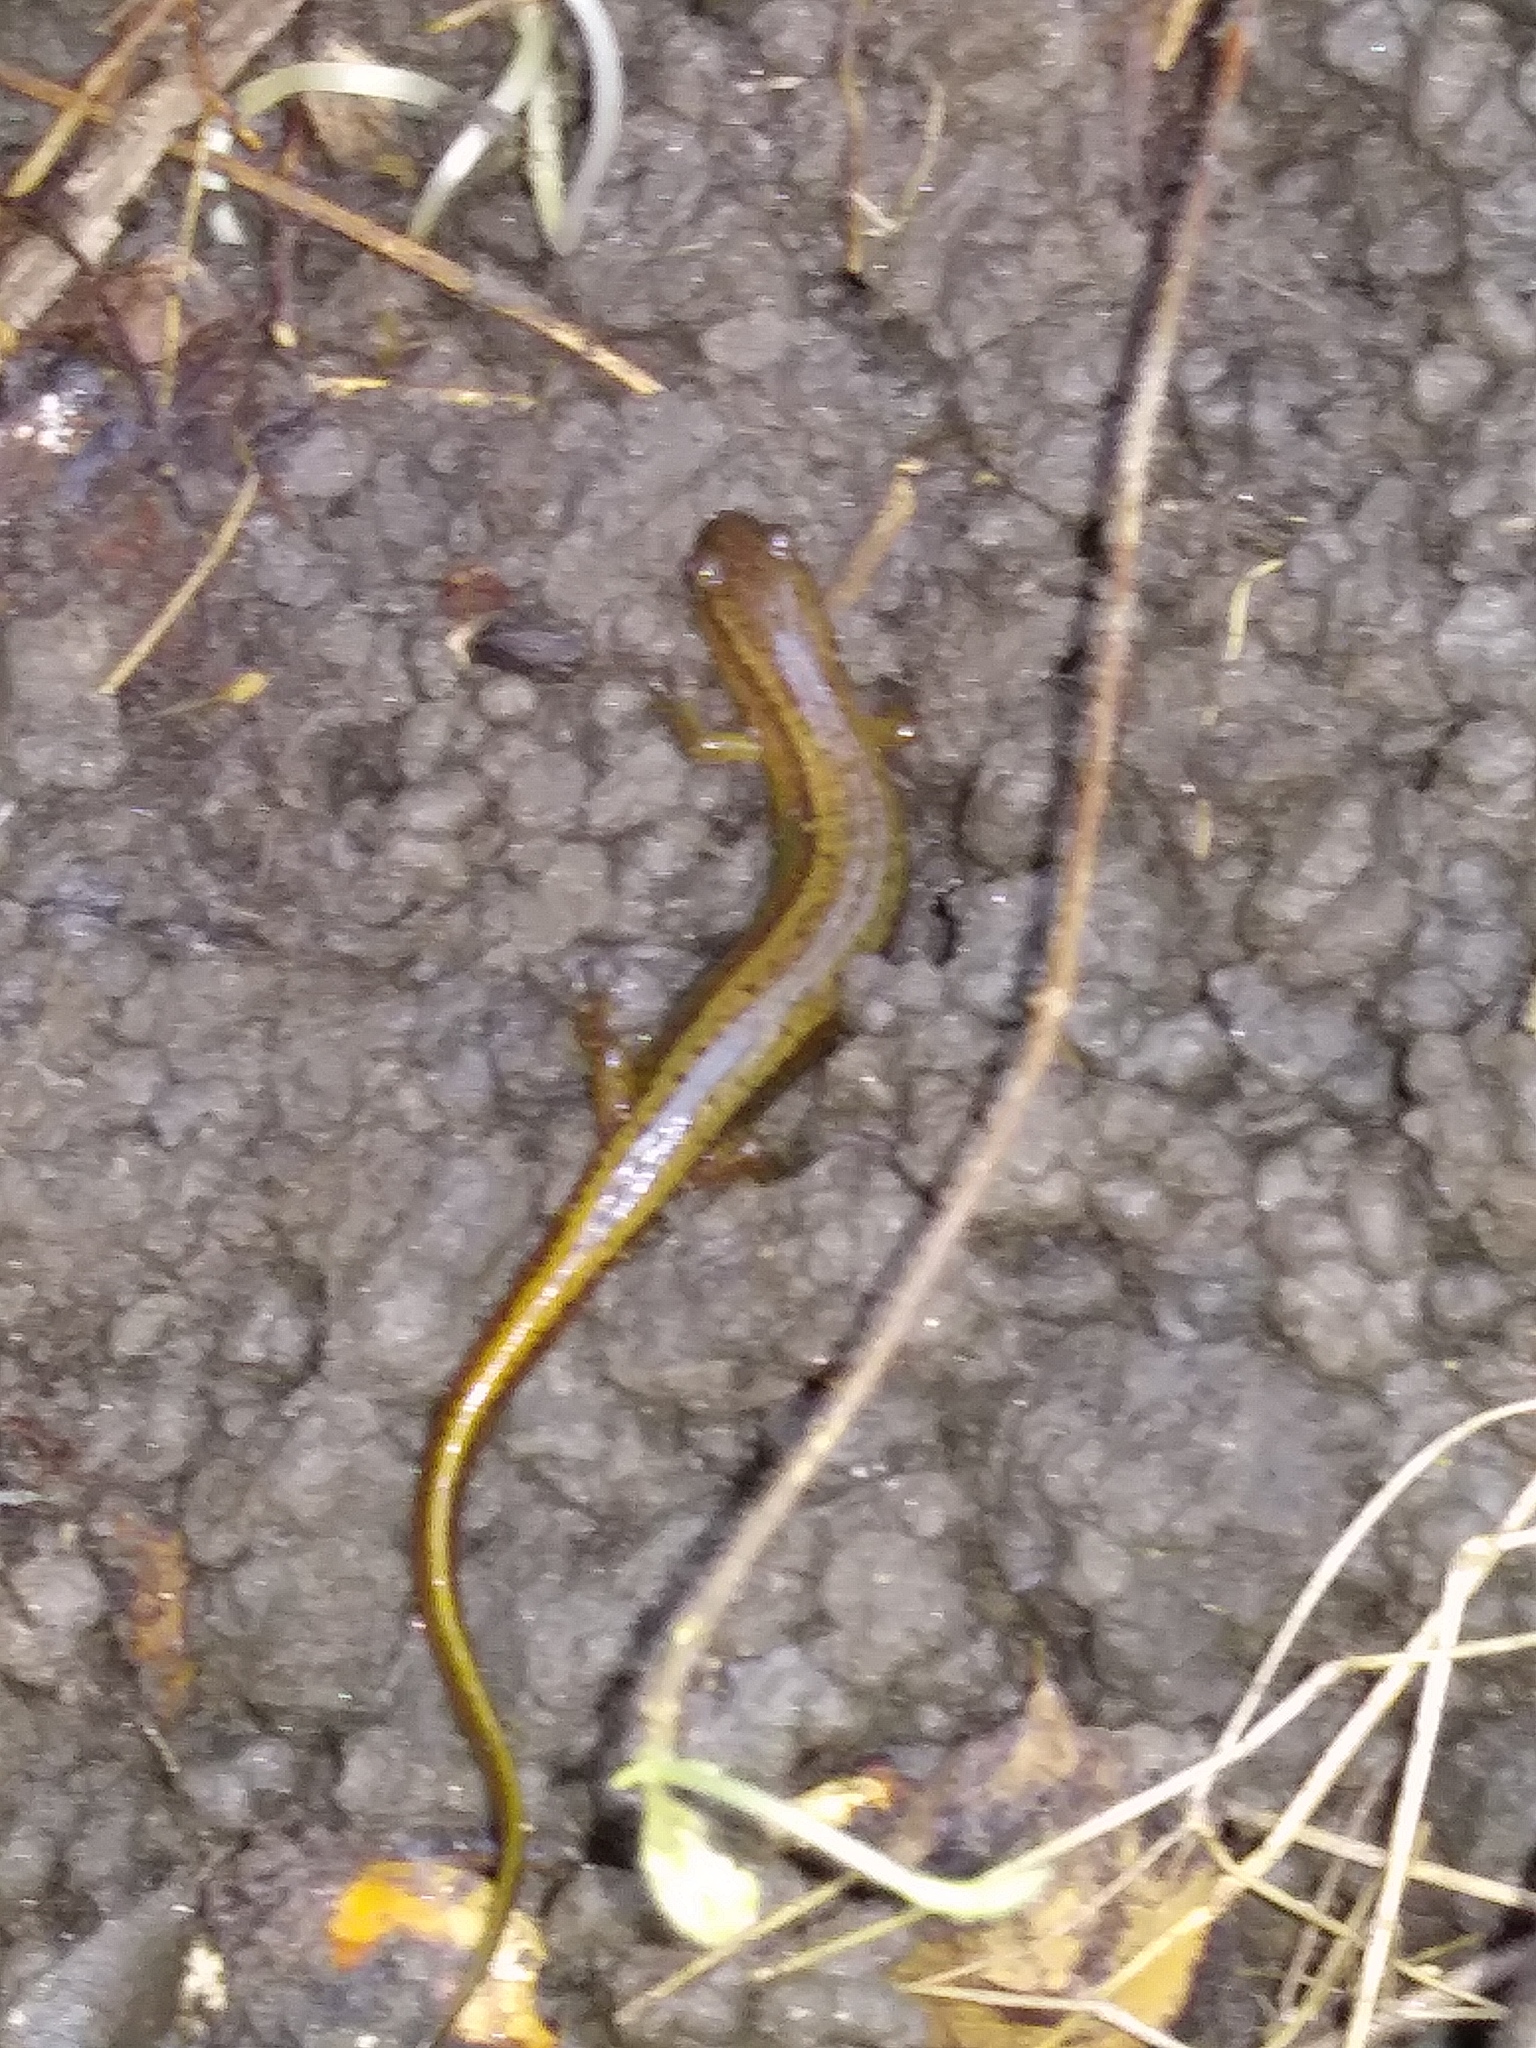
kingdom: Animalia
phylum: Chordata
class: Amphibia
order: Caudata
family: Plethodontidae
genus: Eurycea
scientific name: Eurycea bislineata
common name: Northern two-lined salamander
